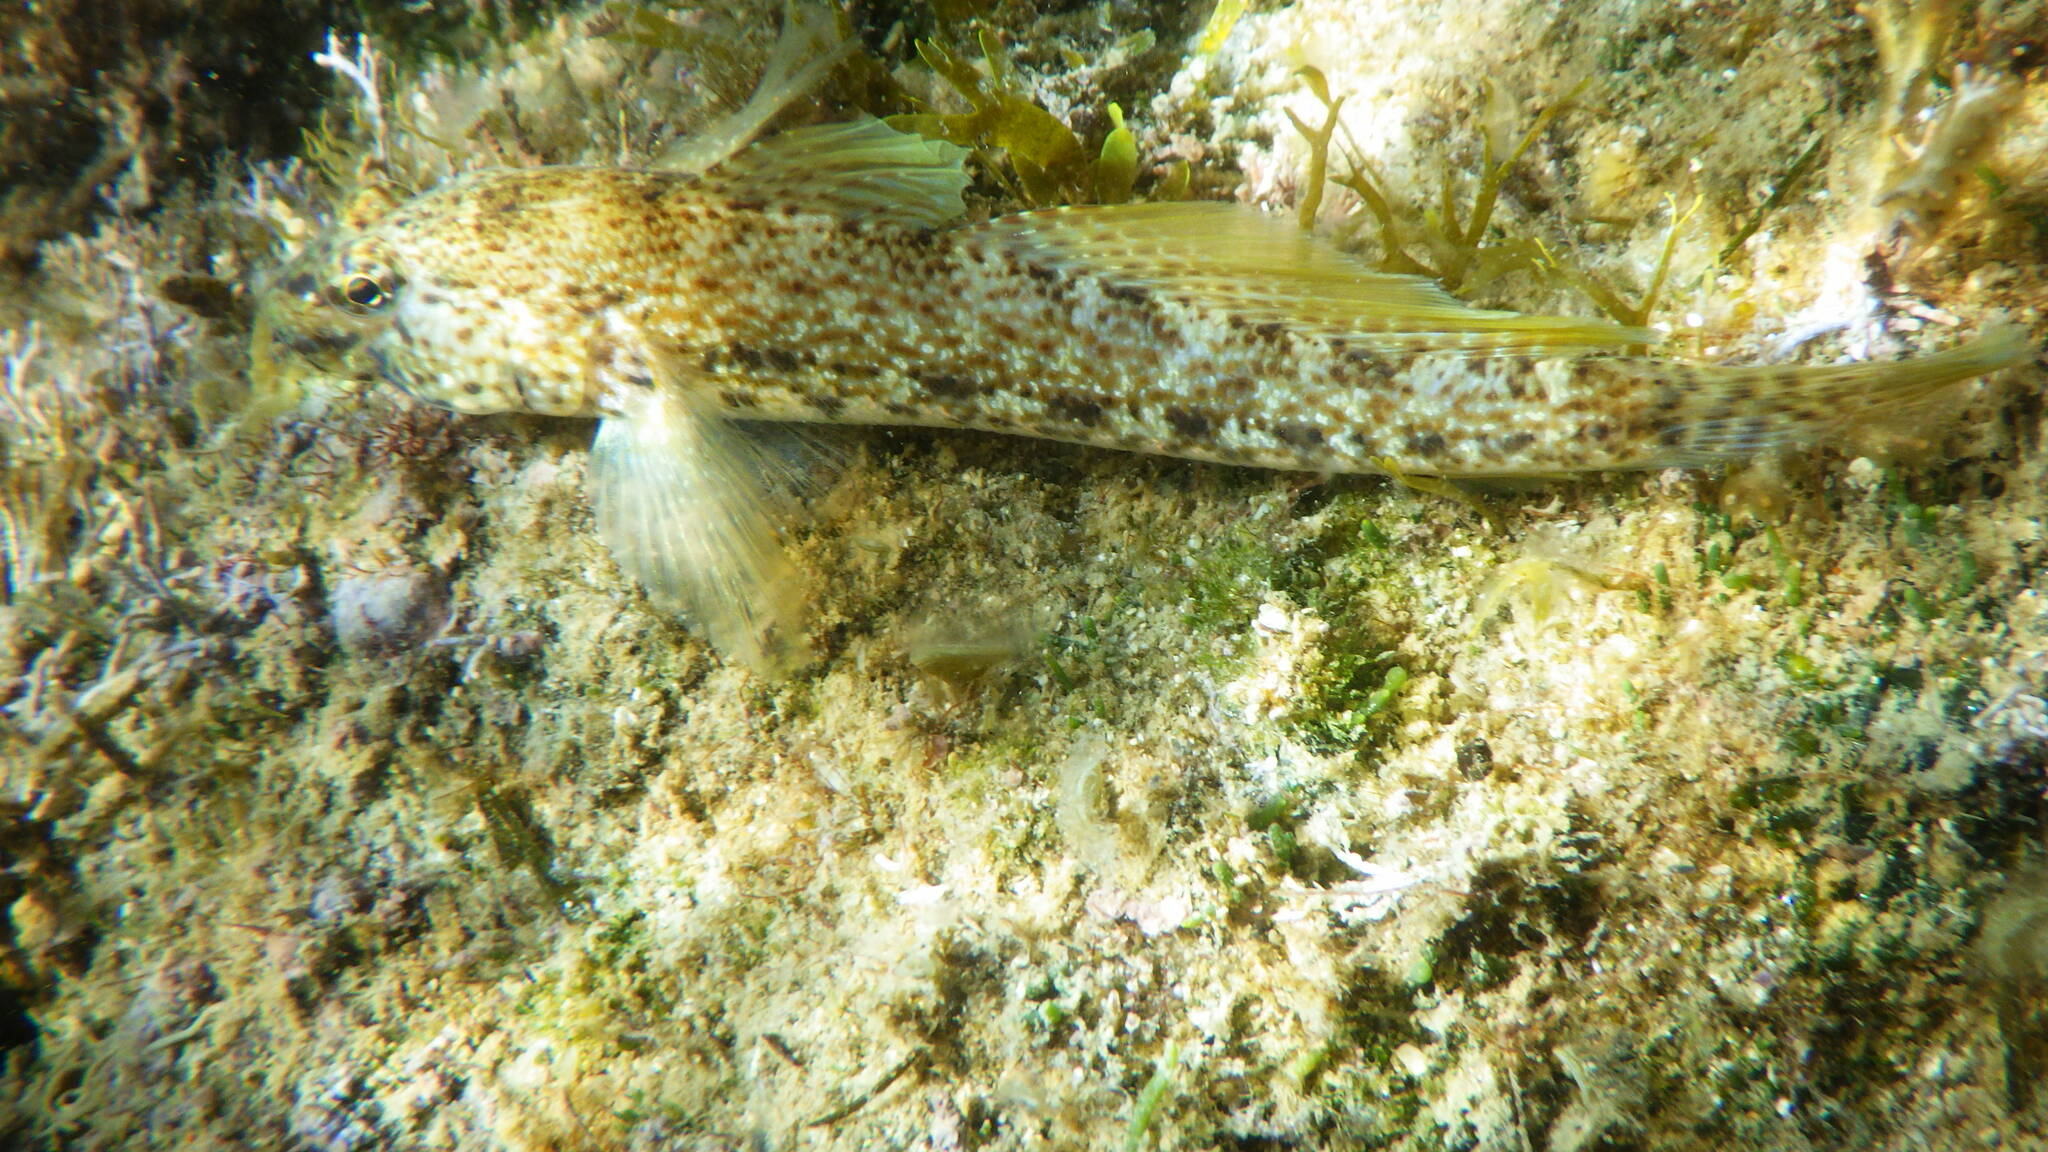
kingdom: Animalia
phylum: Chordata
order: Perciformes
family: Gobiidae
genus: Gobius
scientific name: Gobius incognitus
